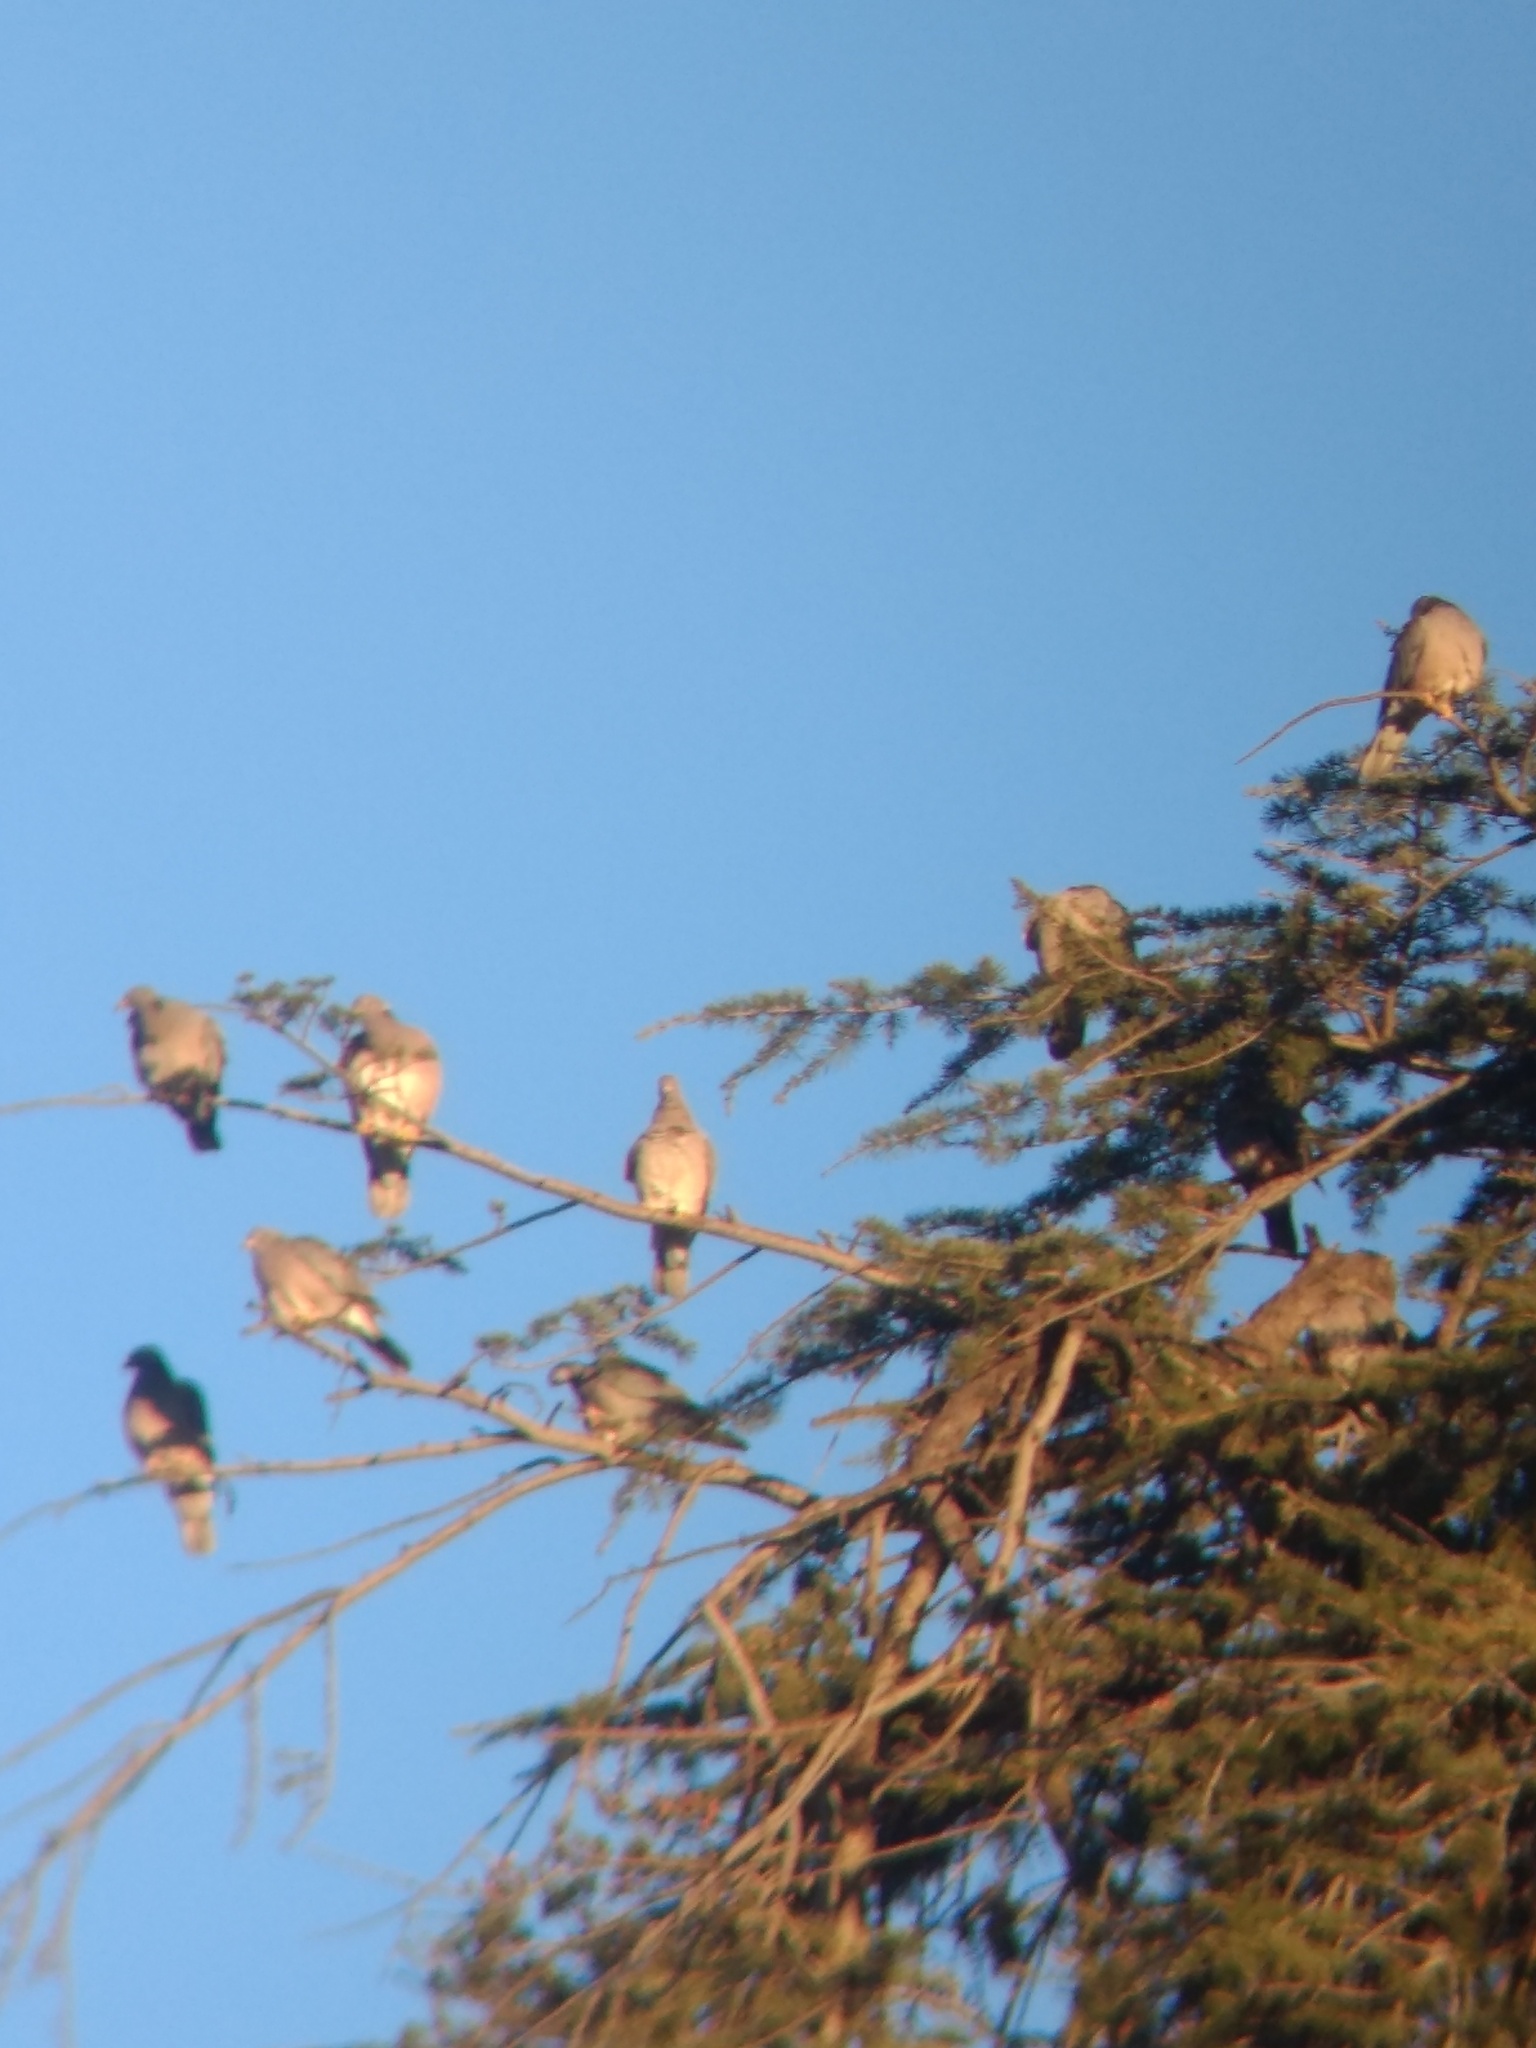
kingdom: Animalia
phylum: Chordata
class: Aves
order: Columbiformes
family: Columbidae
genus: Patagioenas
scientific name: Patagioenas fasciata
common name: Band-tailed pigeon
